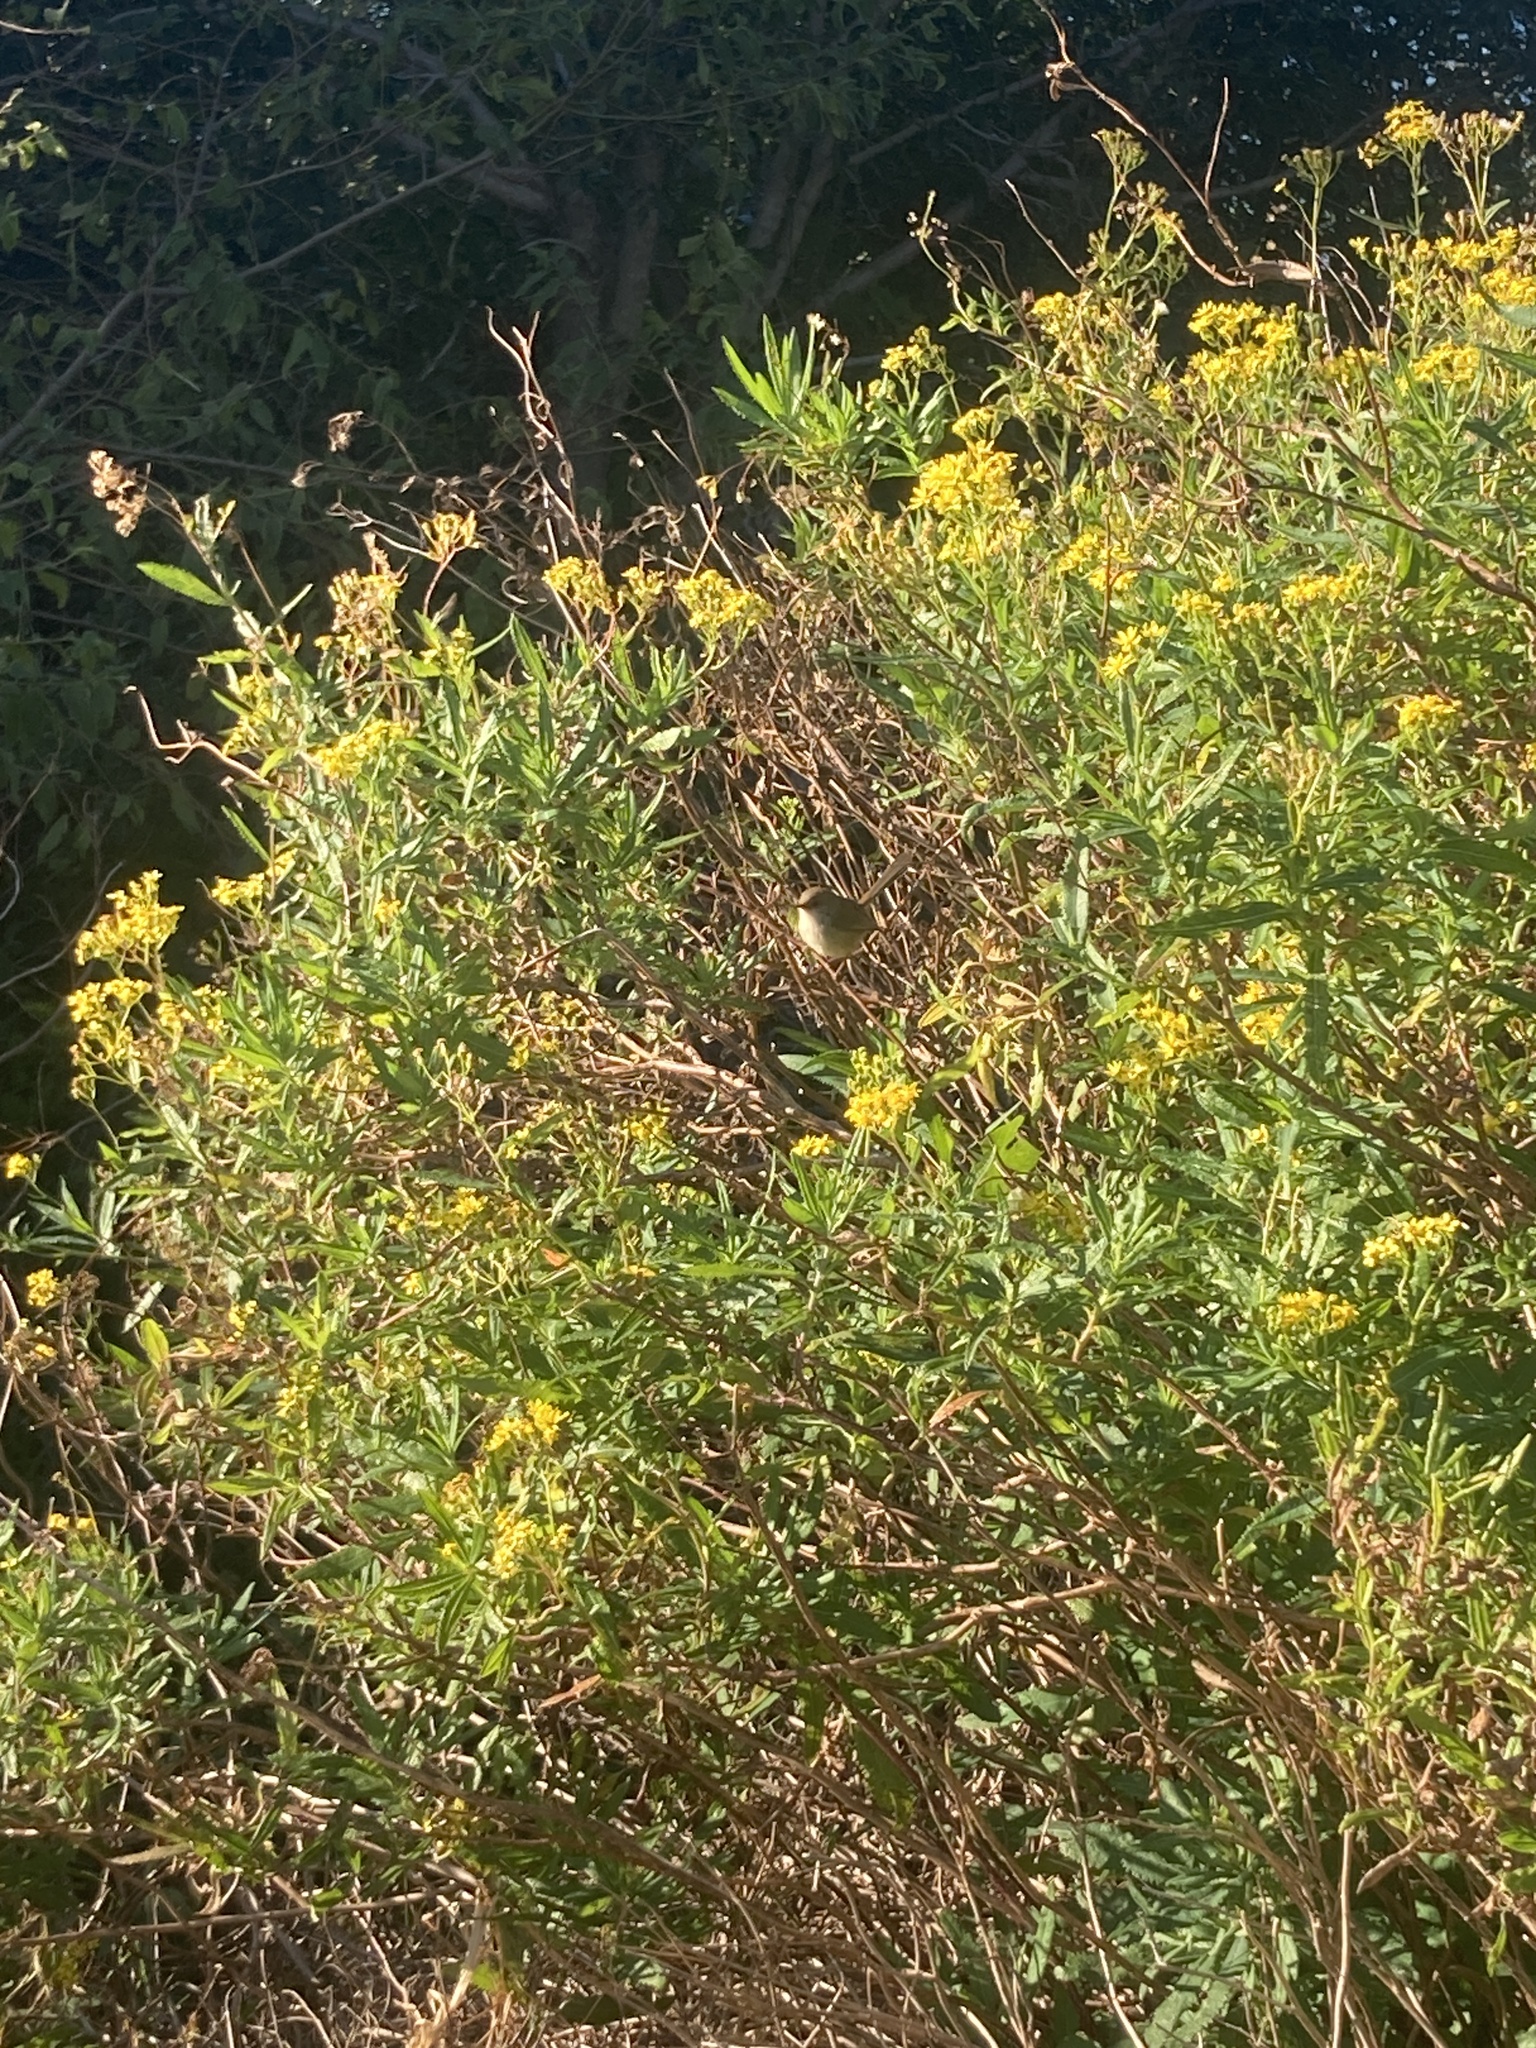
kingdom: Animalia
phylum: Chordata
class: Aves
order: Passeriformes
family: Maluridae
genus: Malurus
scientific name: Malurus cyaneus
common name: Superb fairywren
